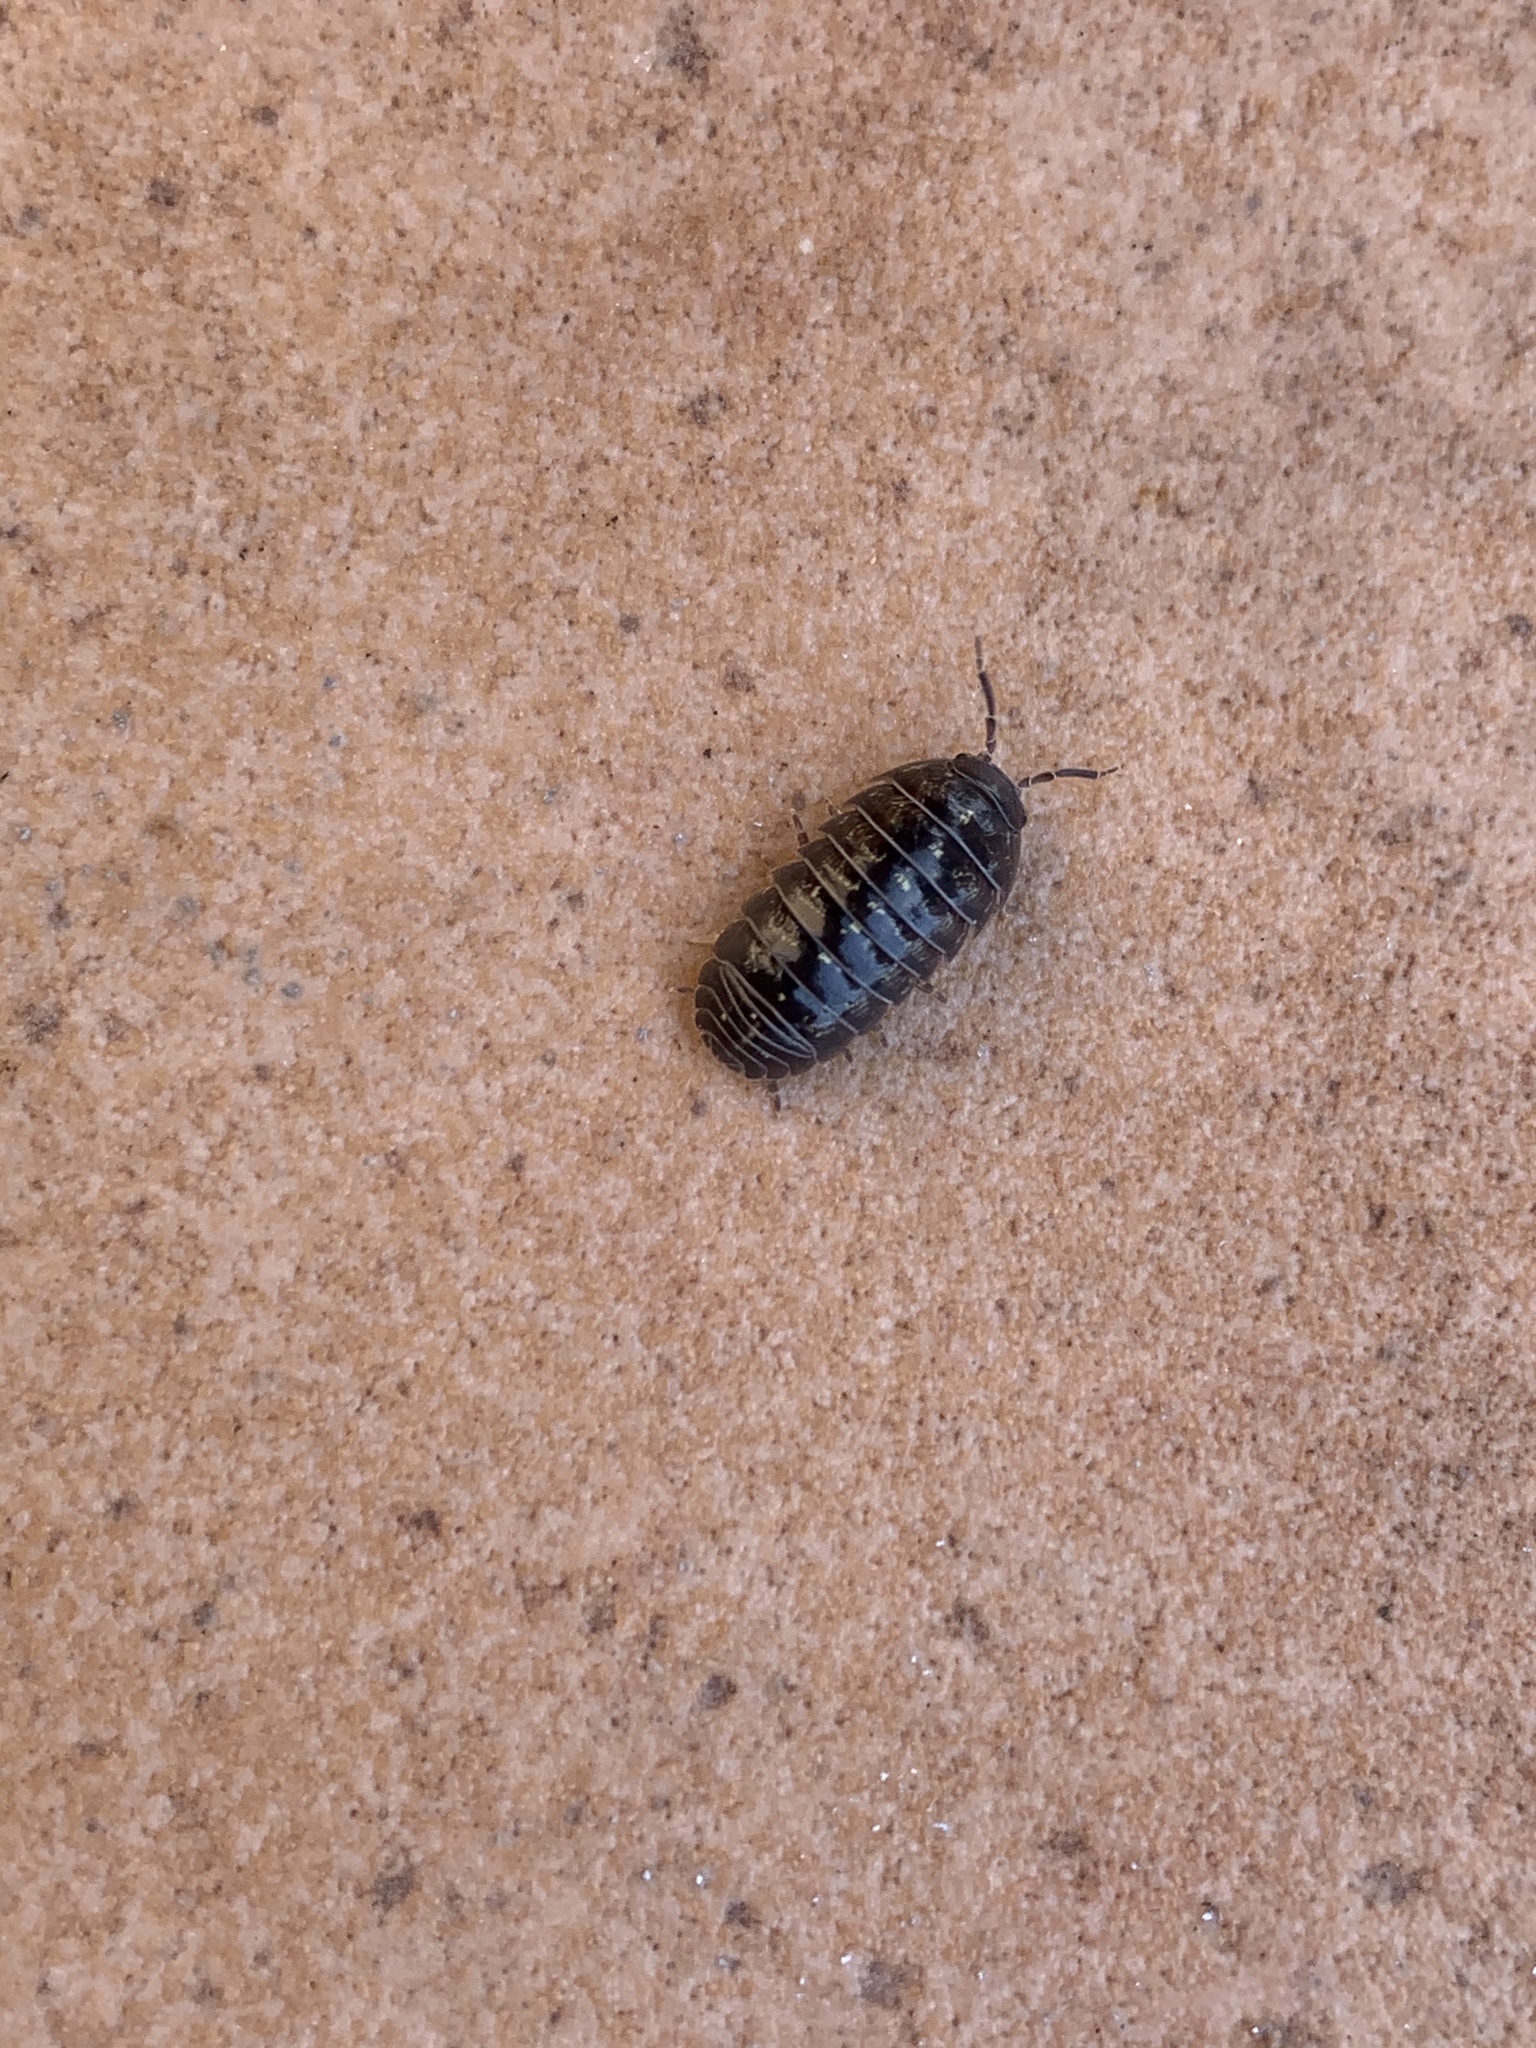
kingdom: Animalia
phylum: Arthropoda
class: Malacostraca
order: Isopoda
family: Armadillidiidae
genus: Armadillidium
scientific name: Armadillidium vulgare
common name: Common pill woodlouse
